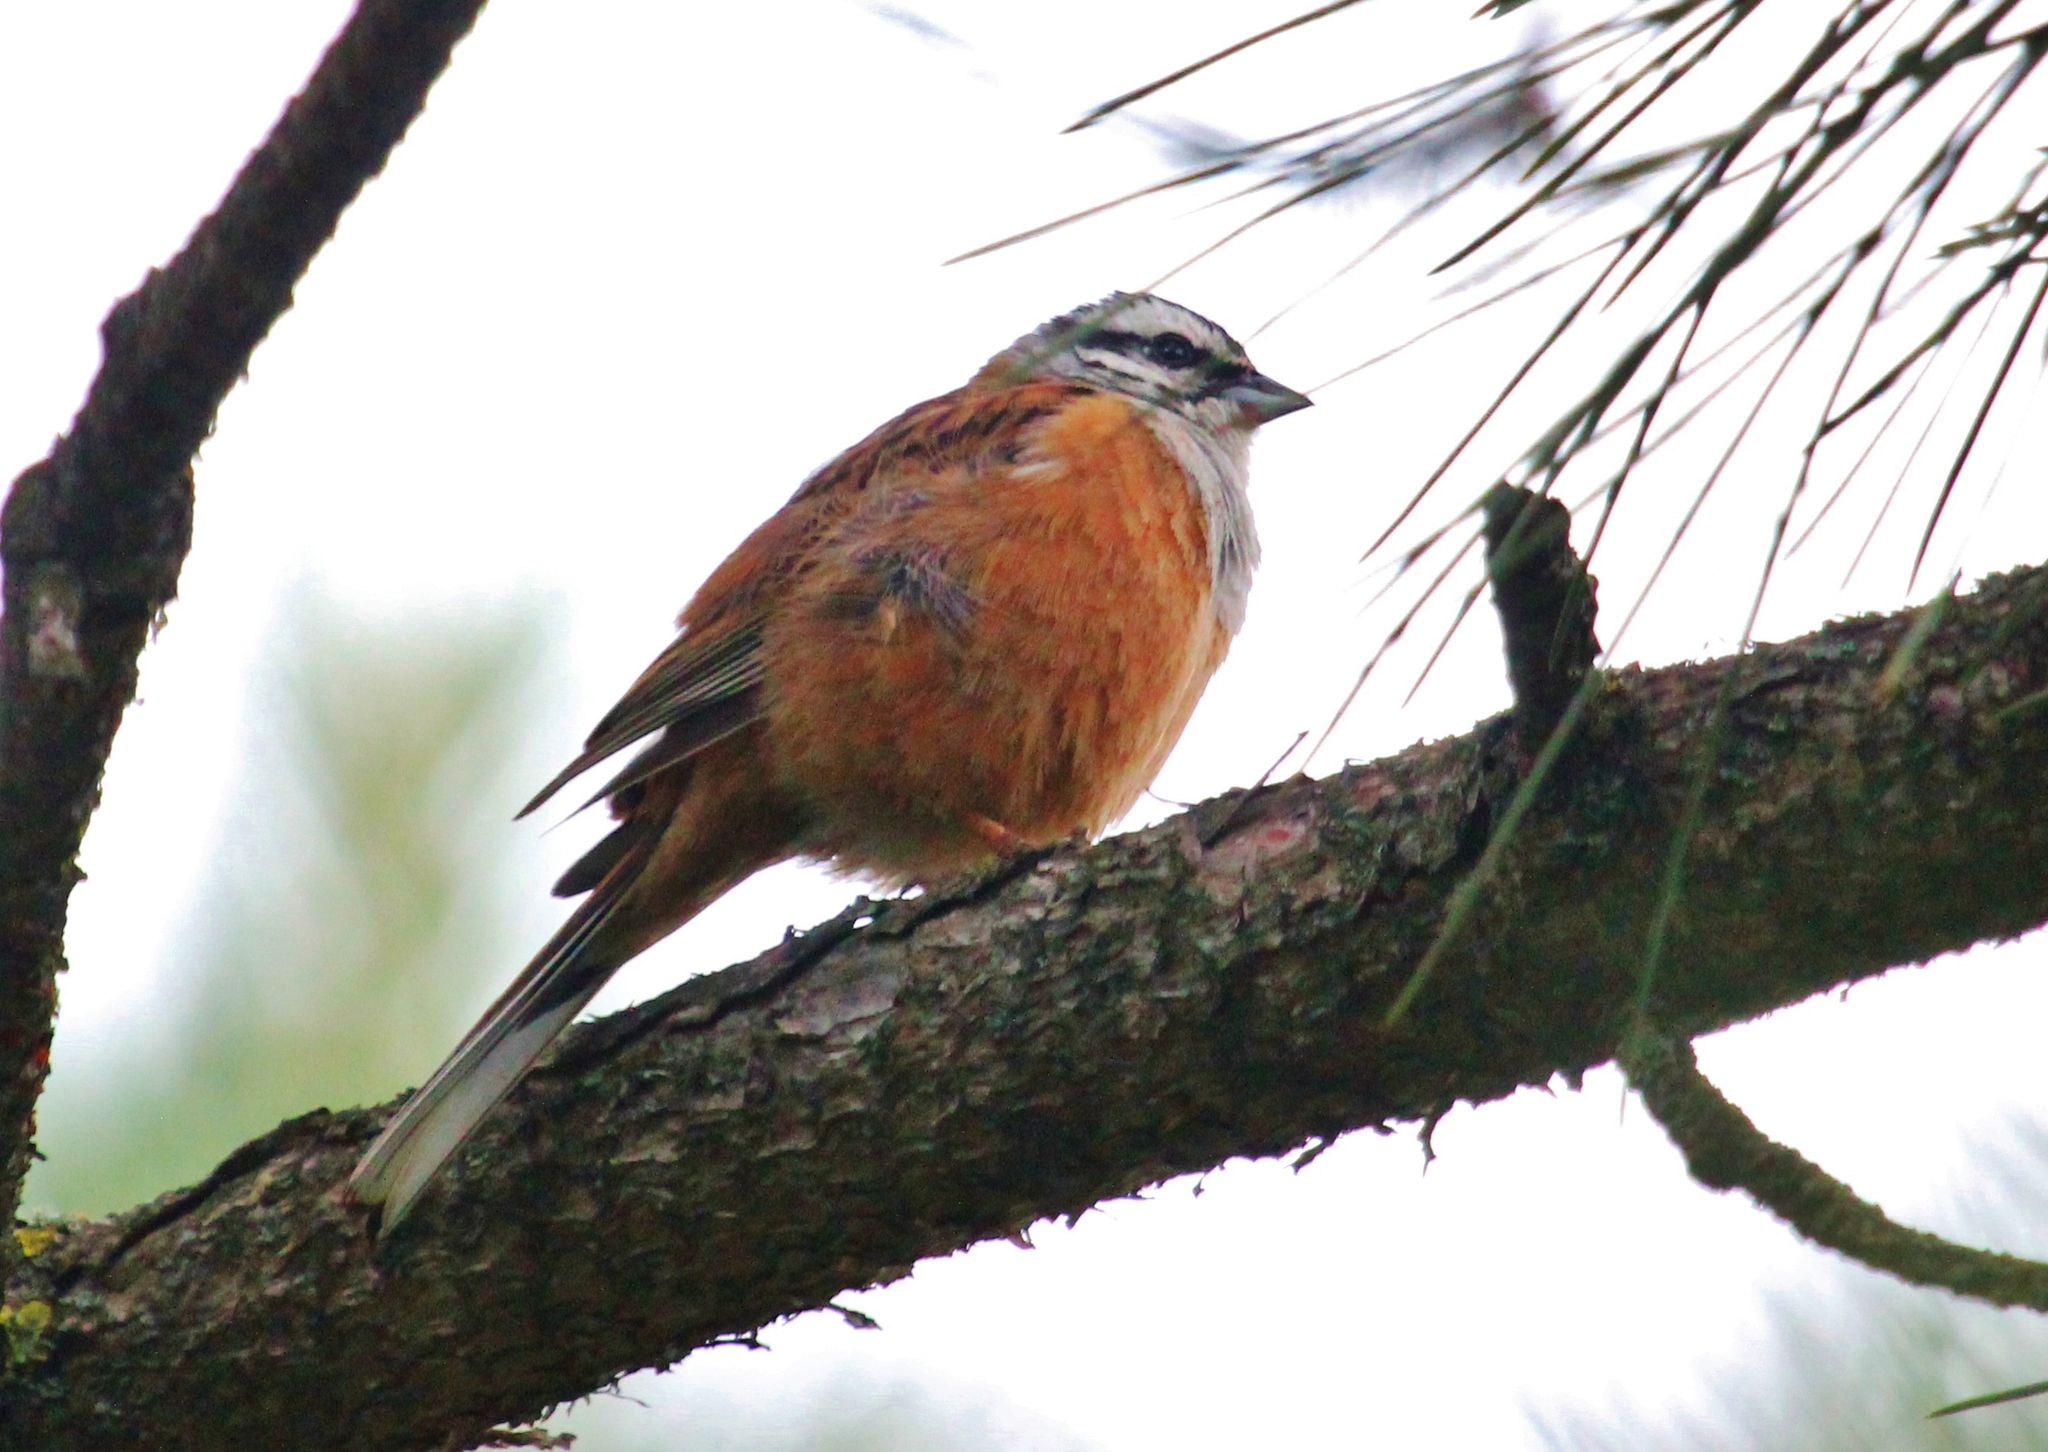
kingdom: Animalia
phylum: Chordata
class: Aves
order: Passeriformes
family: Emberizidae
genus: Emberiza
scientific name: Emberiza cia
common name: Rock bunting
